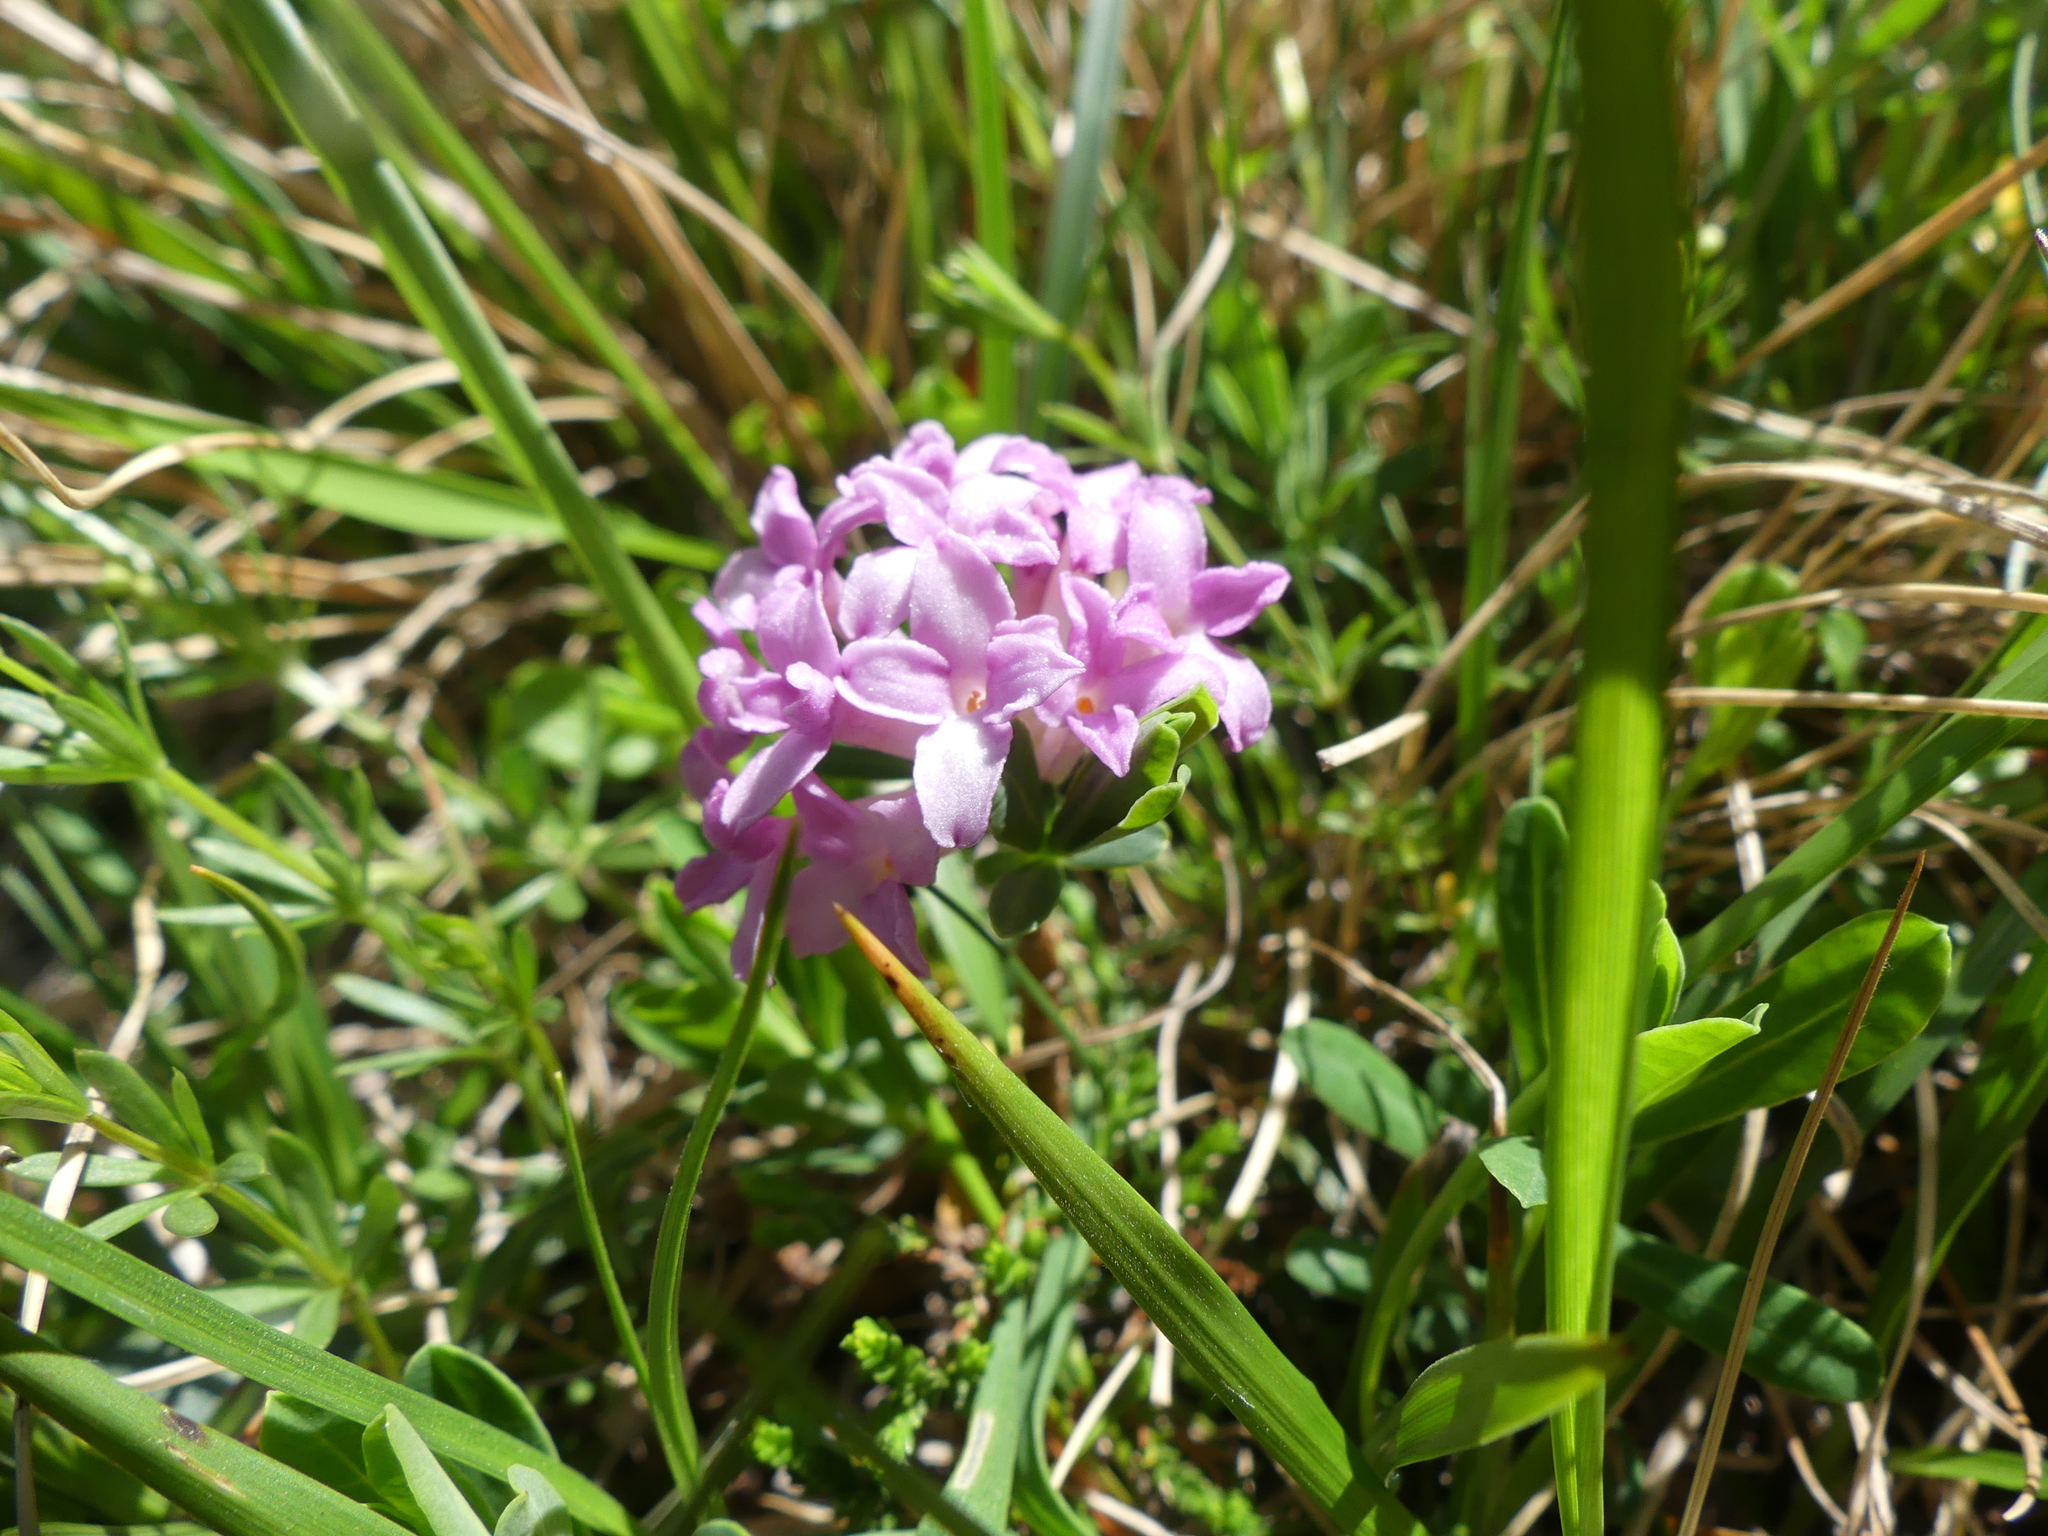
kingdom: Plantae
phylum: Tracheophyta
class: Magnoliopsida
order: Malvales
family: Thymelaeaceae
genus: Daphne
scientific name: Daphne striata
